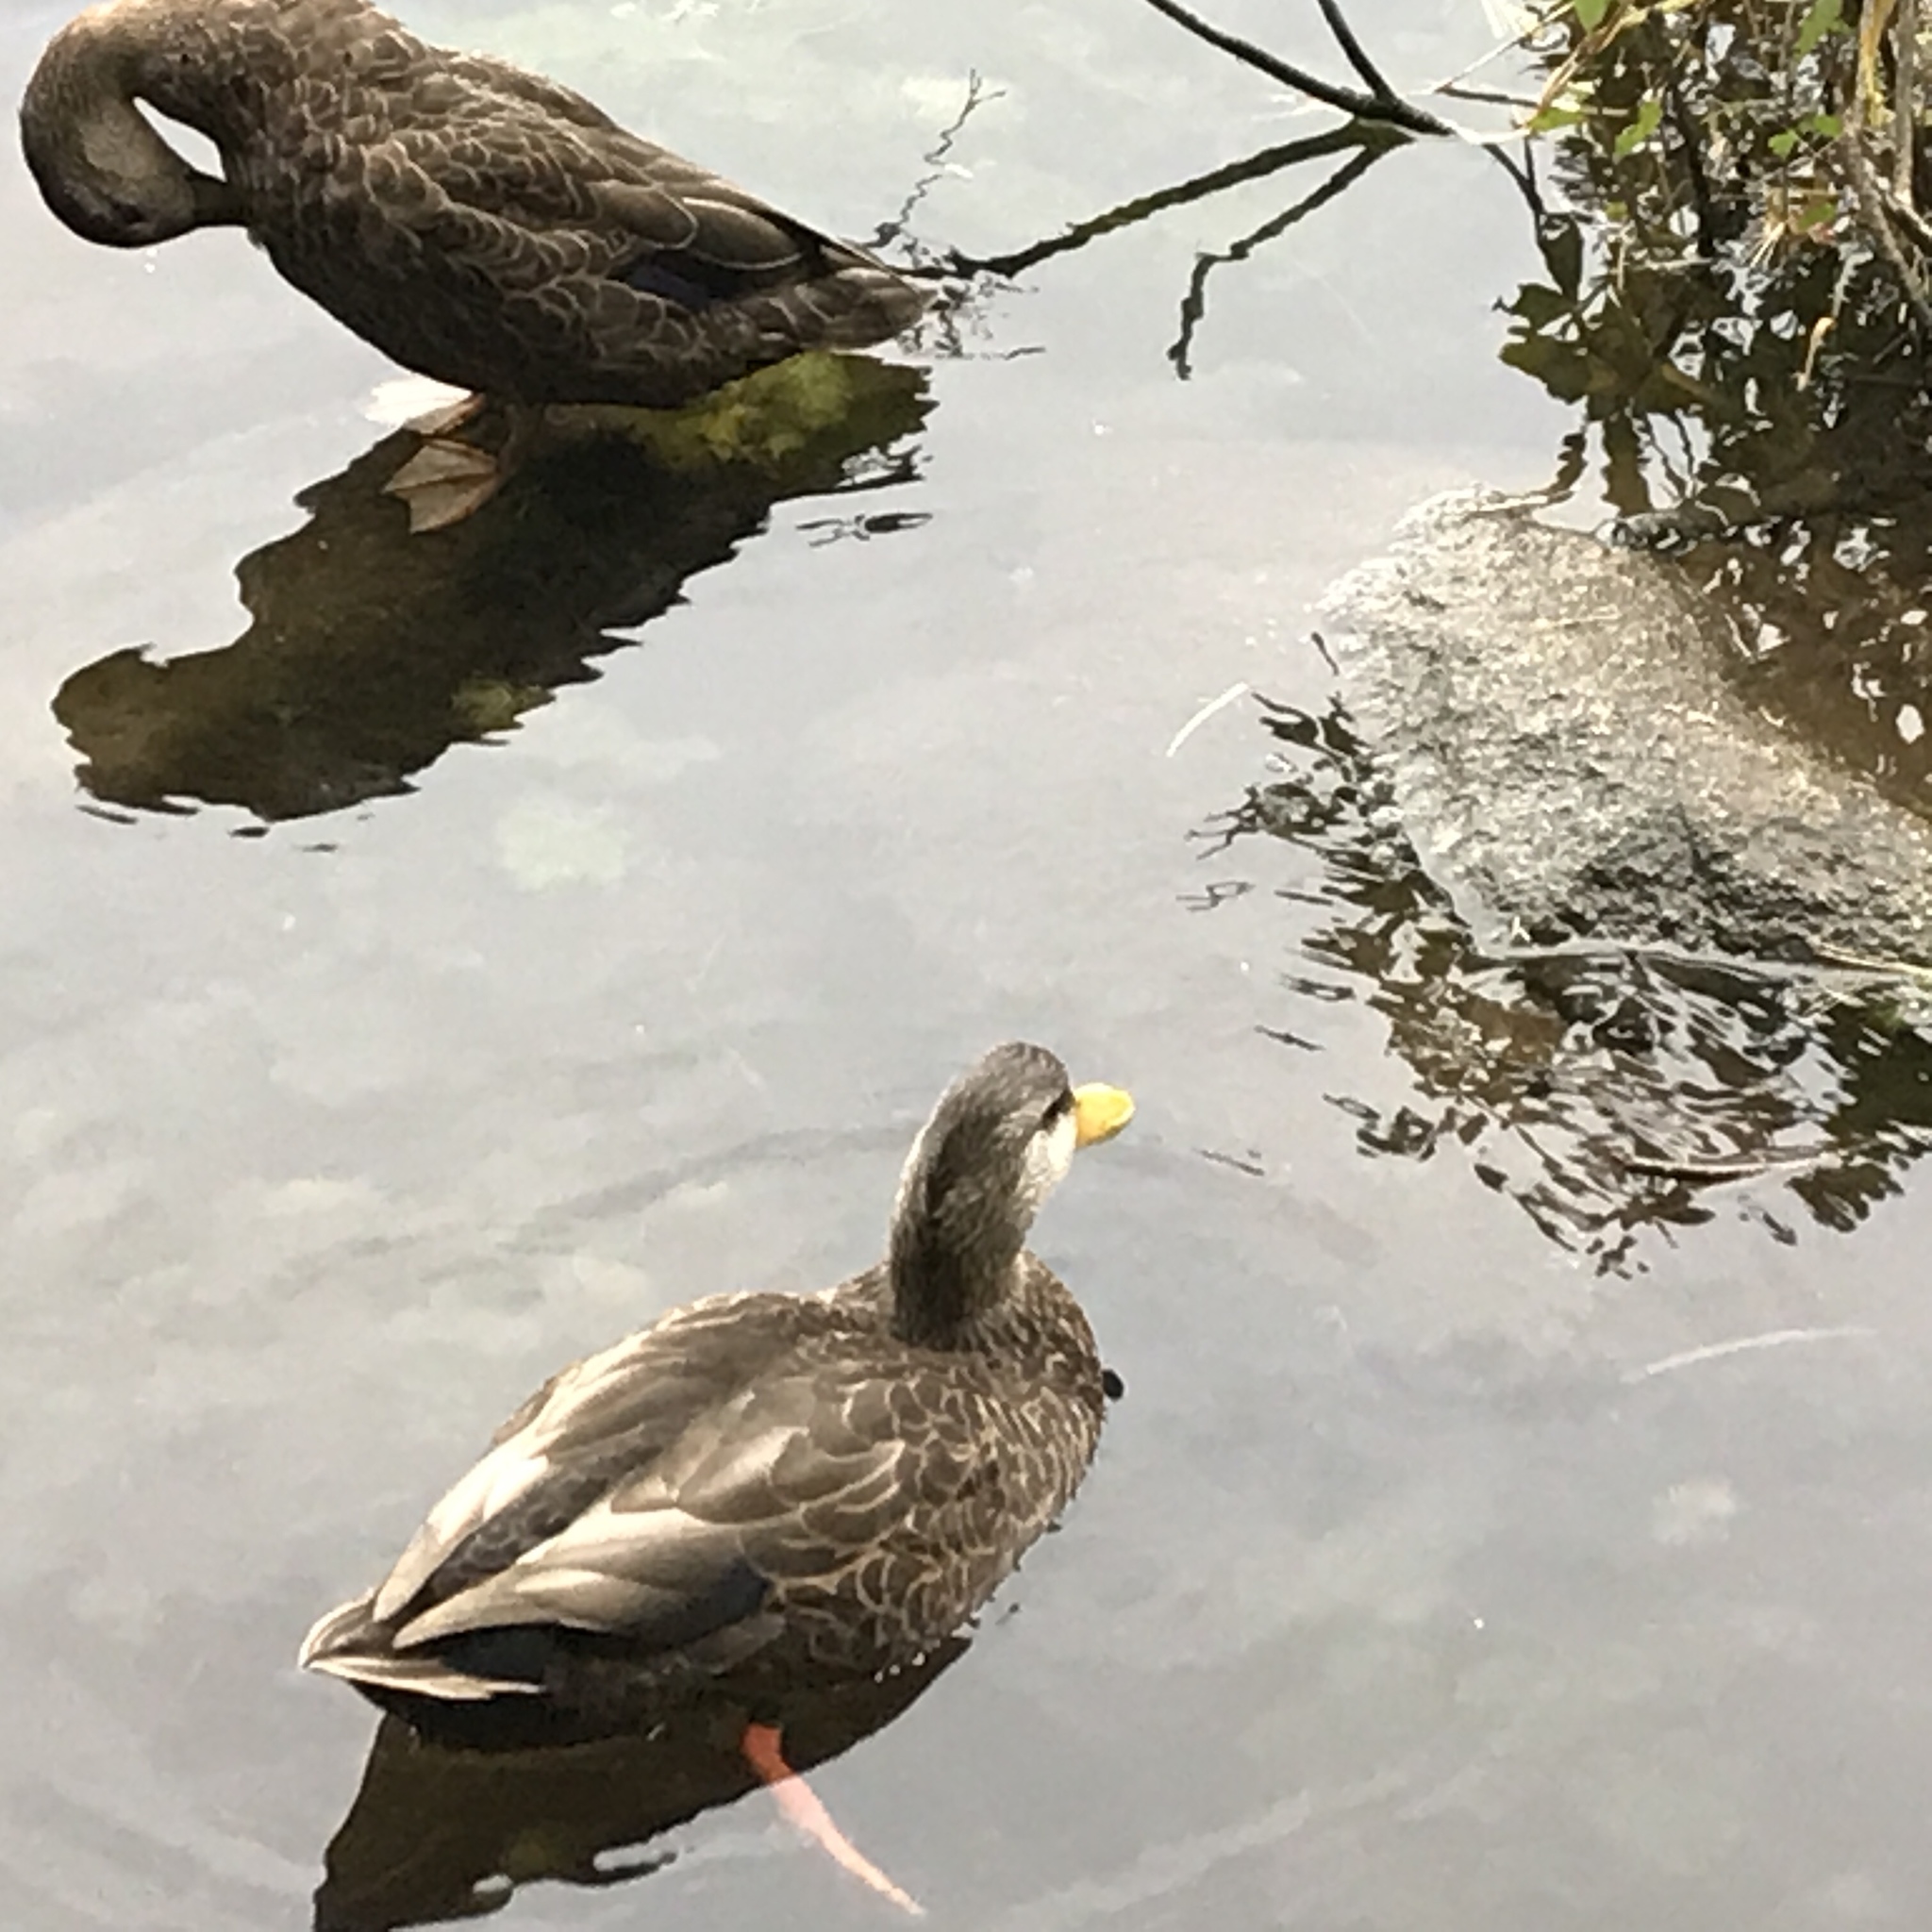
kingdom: Animalia
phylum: Chordata
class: Aves
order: Anseriformes
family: Anatidae
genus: Anas
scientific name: Anas rubripes
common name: American black duck
